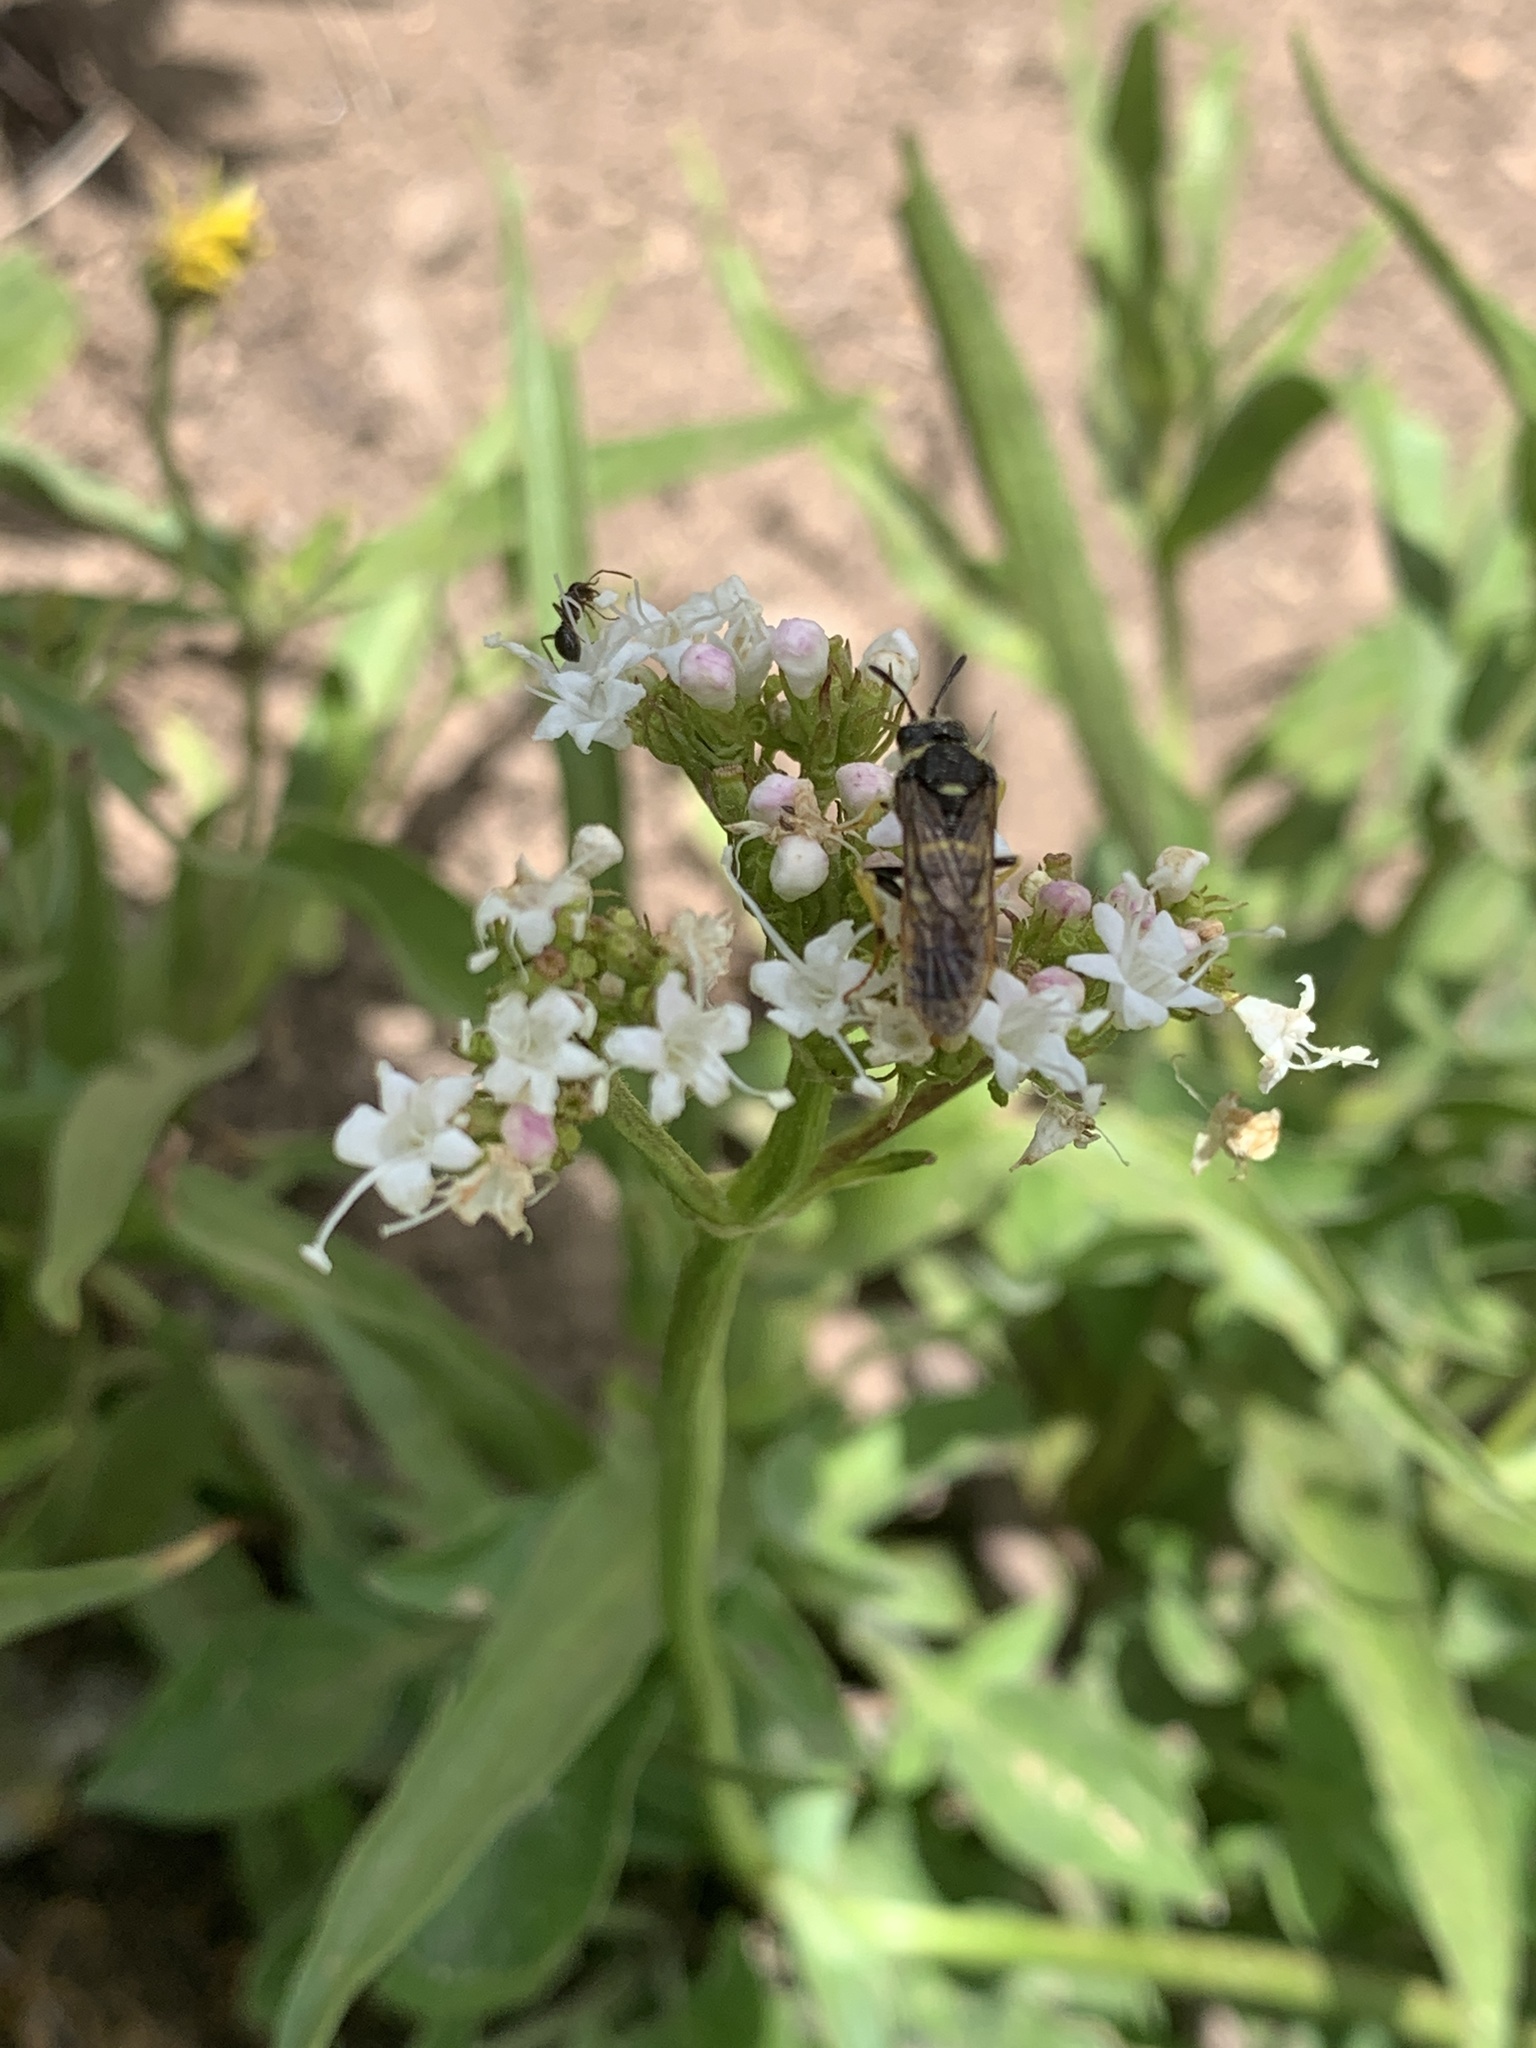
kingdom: Plantae
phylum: Tracheophyta
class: Magnoliopsida
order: Dipsacales
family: Caprifoliaceae
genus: Valeriana
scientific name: Valeriana californica
